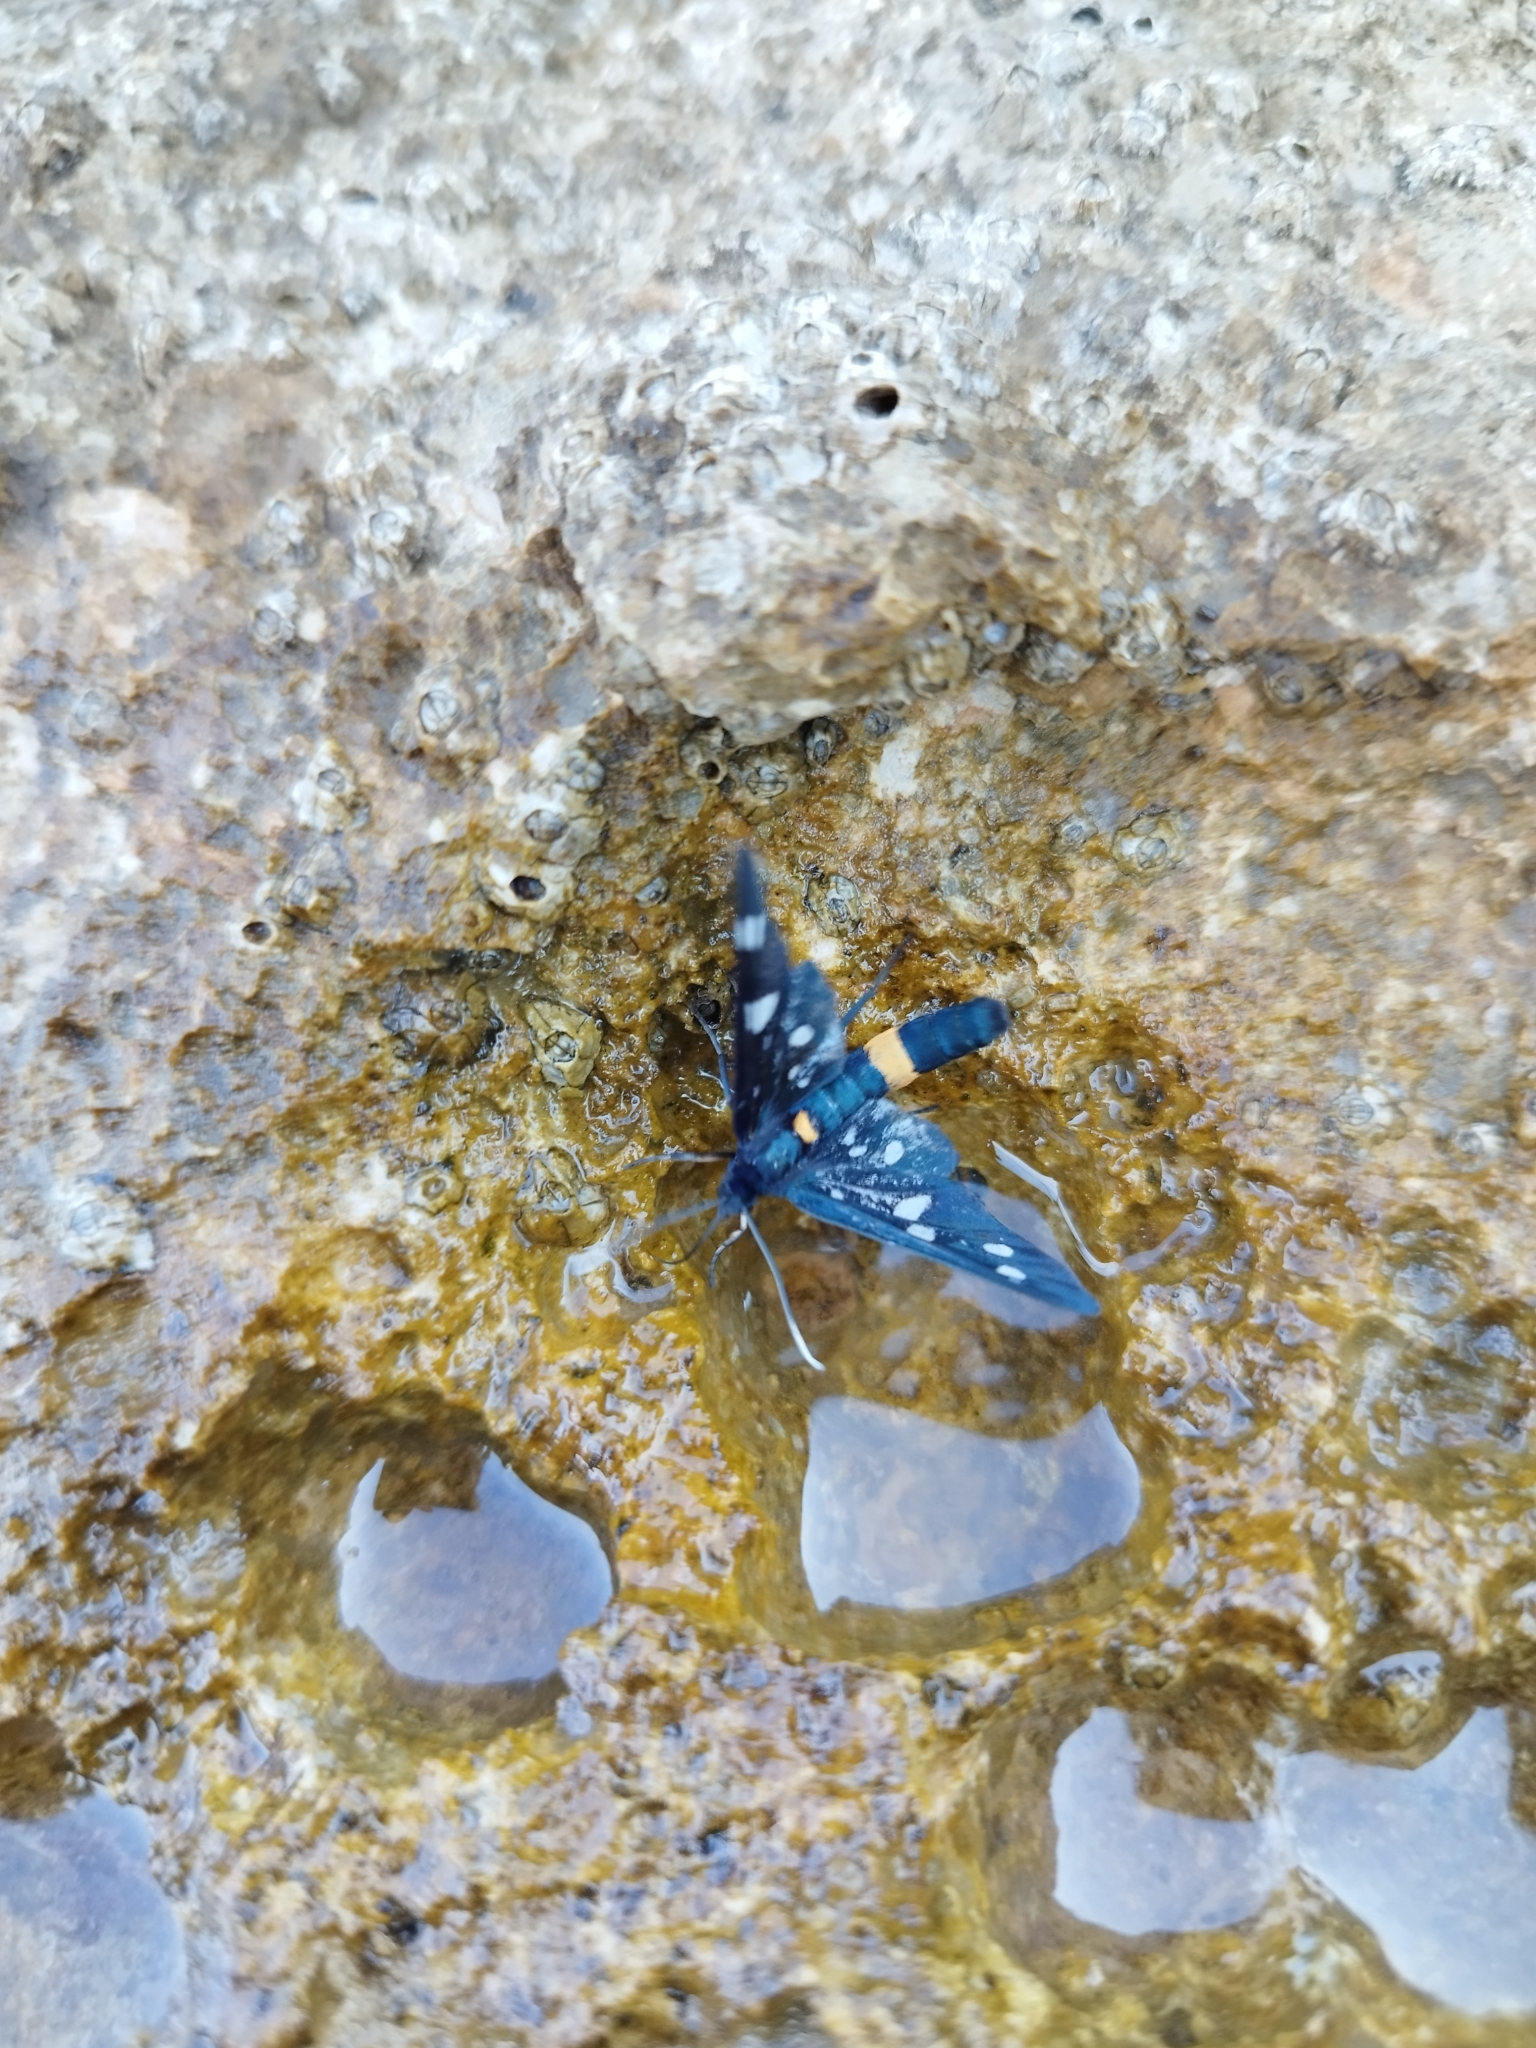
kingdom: Animalia
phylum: Arthropoda
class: Insecta
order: Lepidoptera
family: Erebidae
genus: Amata
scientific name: Amata phegea
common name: Nine-spotted
